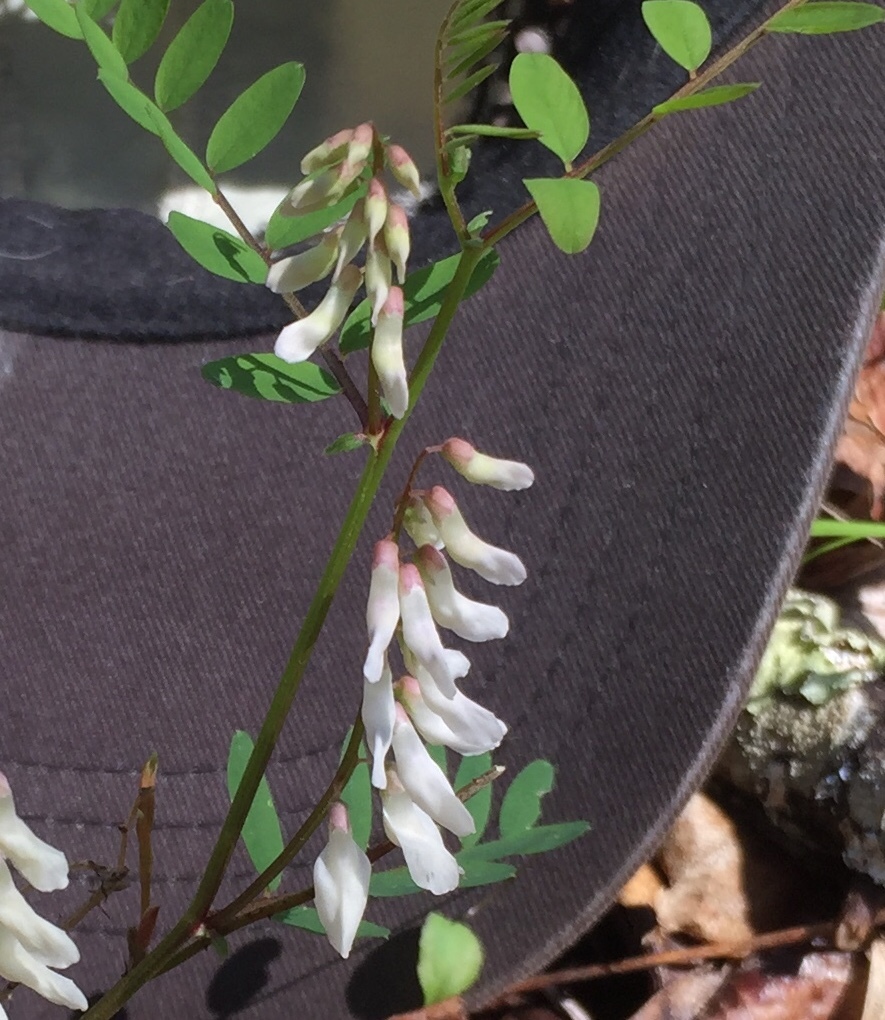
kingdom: Plantae
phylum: Tracheophyta
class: Magnoliopsida
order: Fabales
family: Fabaceae
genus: Vicia
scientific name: Vicia caroliniana
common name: Carolina vetch
